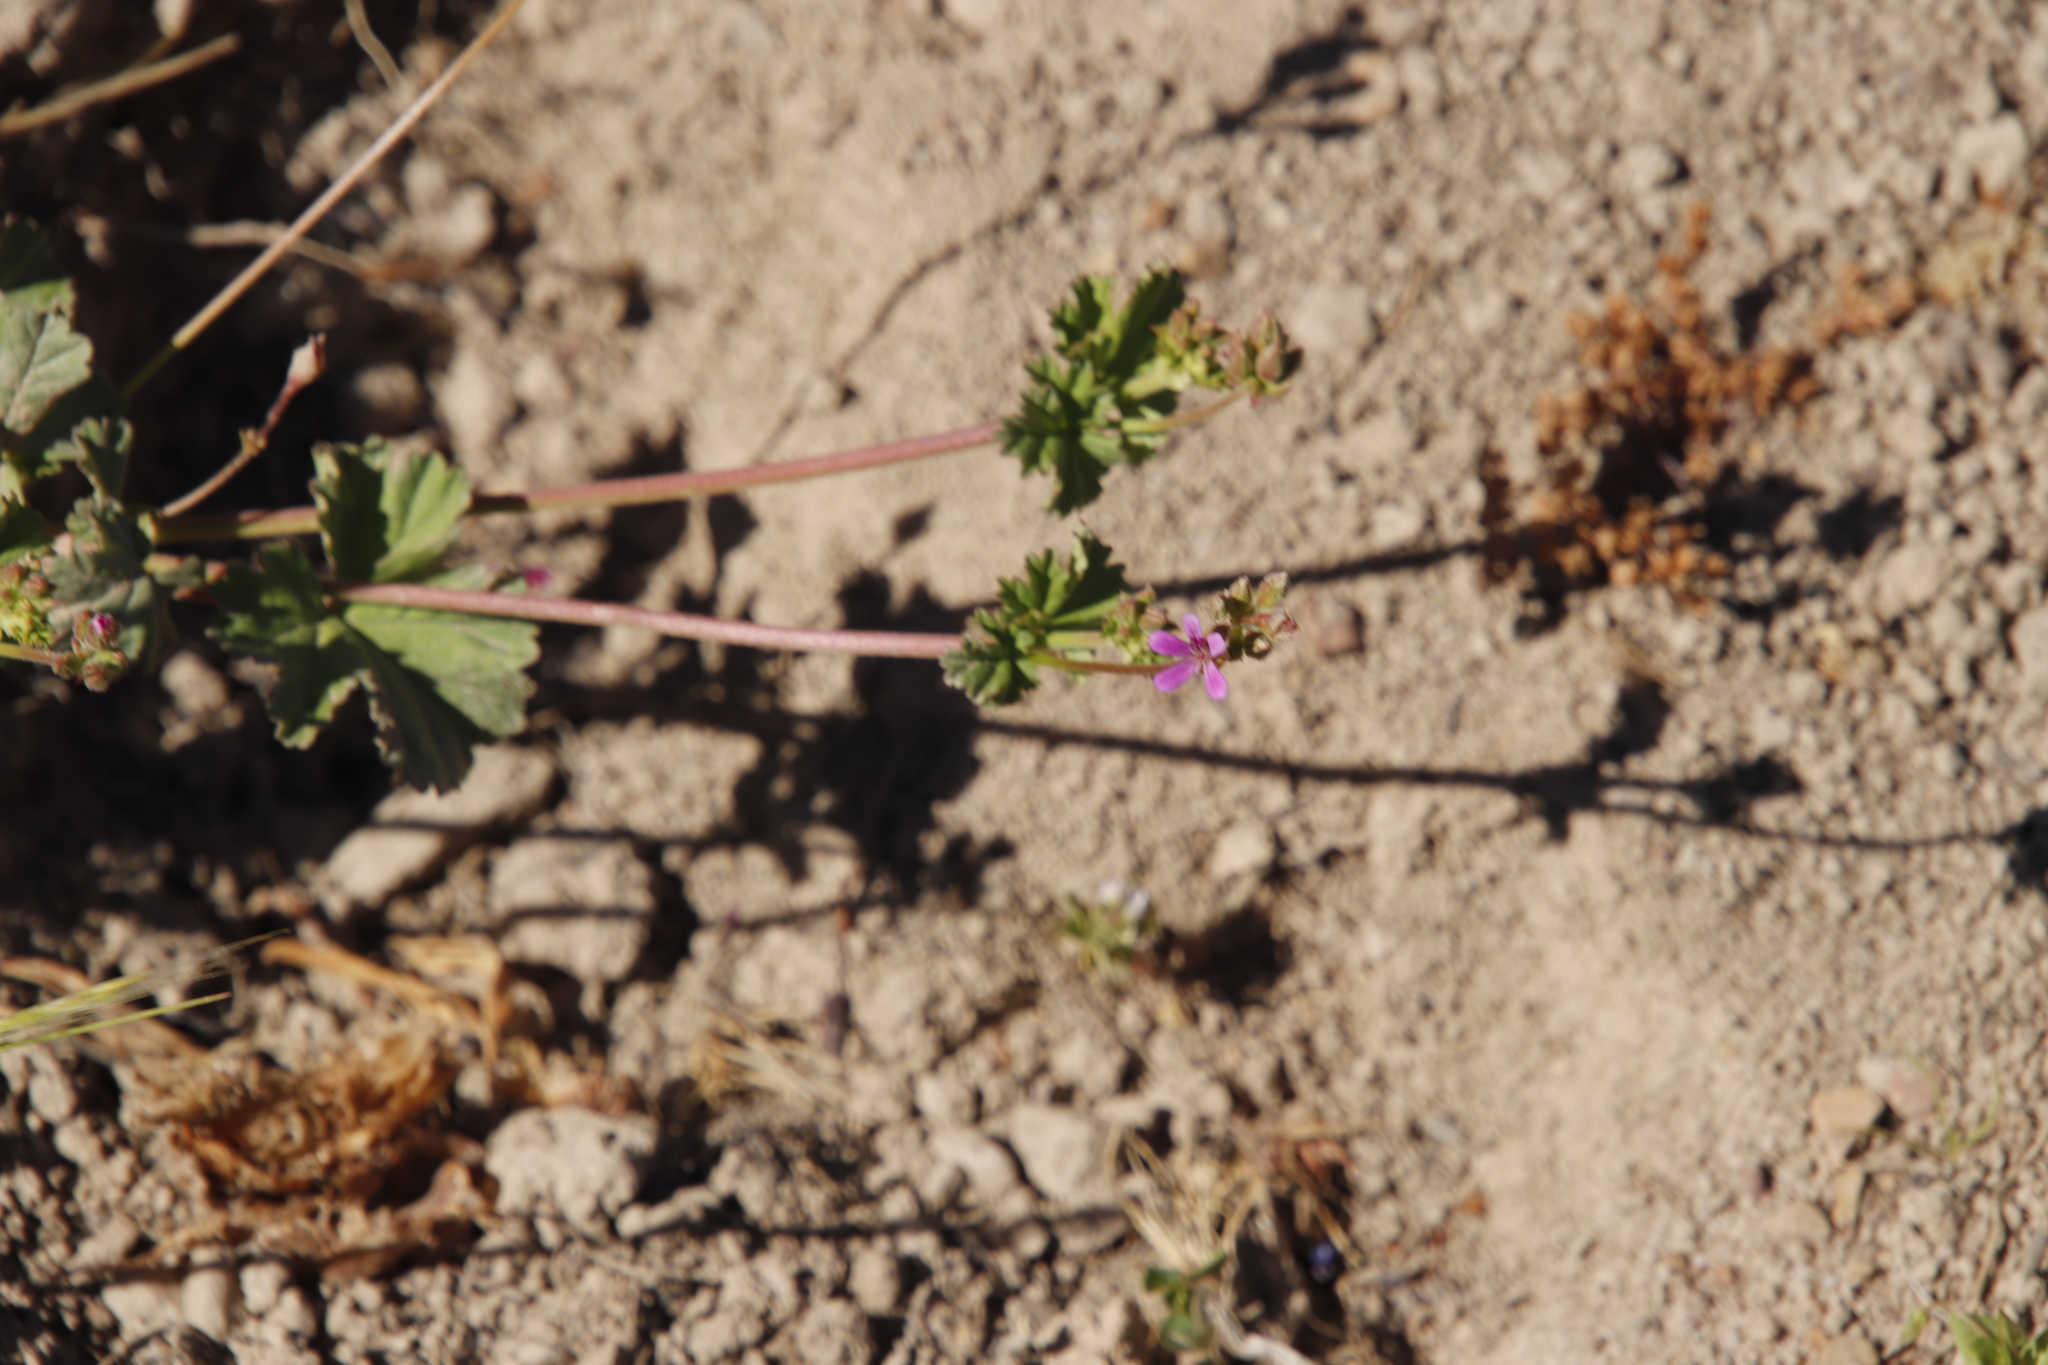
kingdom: Plantae
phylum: Tracheophyta
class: Magnoliopsida
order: Geraniales
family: Geraniaceae
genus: Pelargonium
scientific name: Pelargonium grossularioides
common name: Gooseberry geranium
